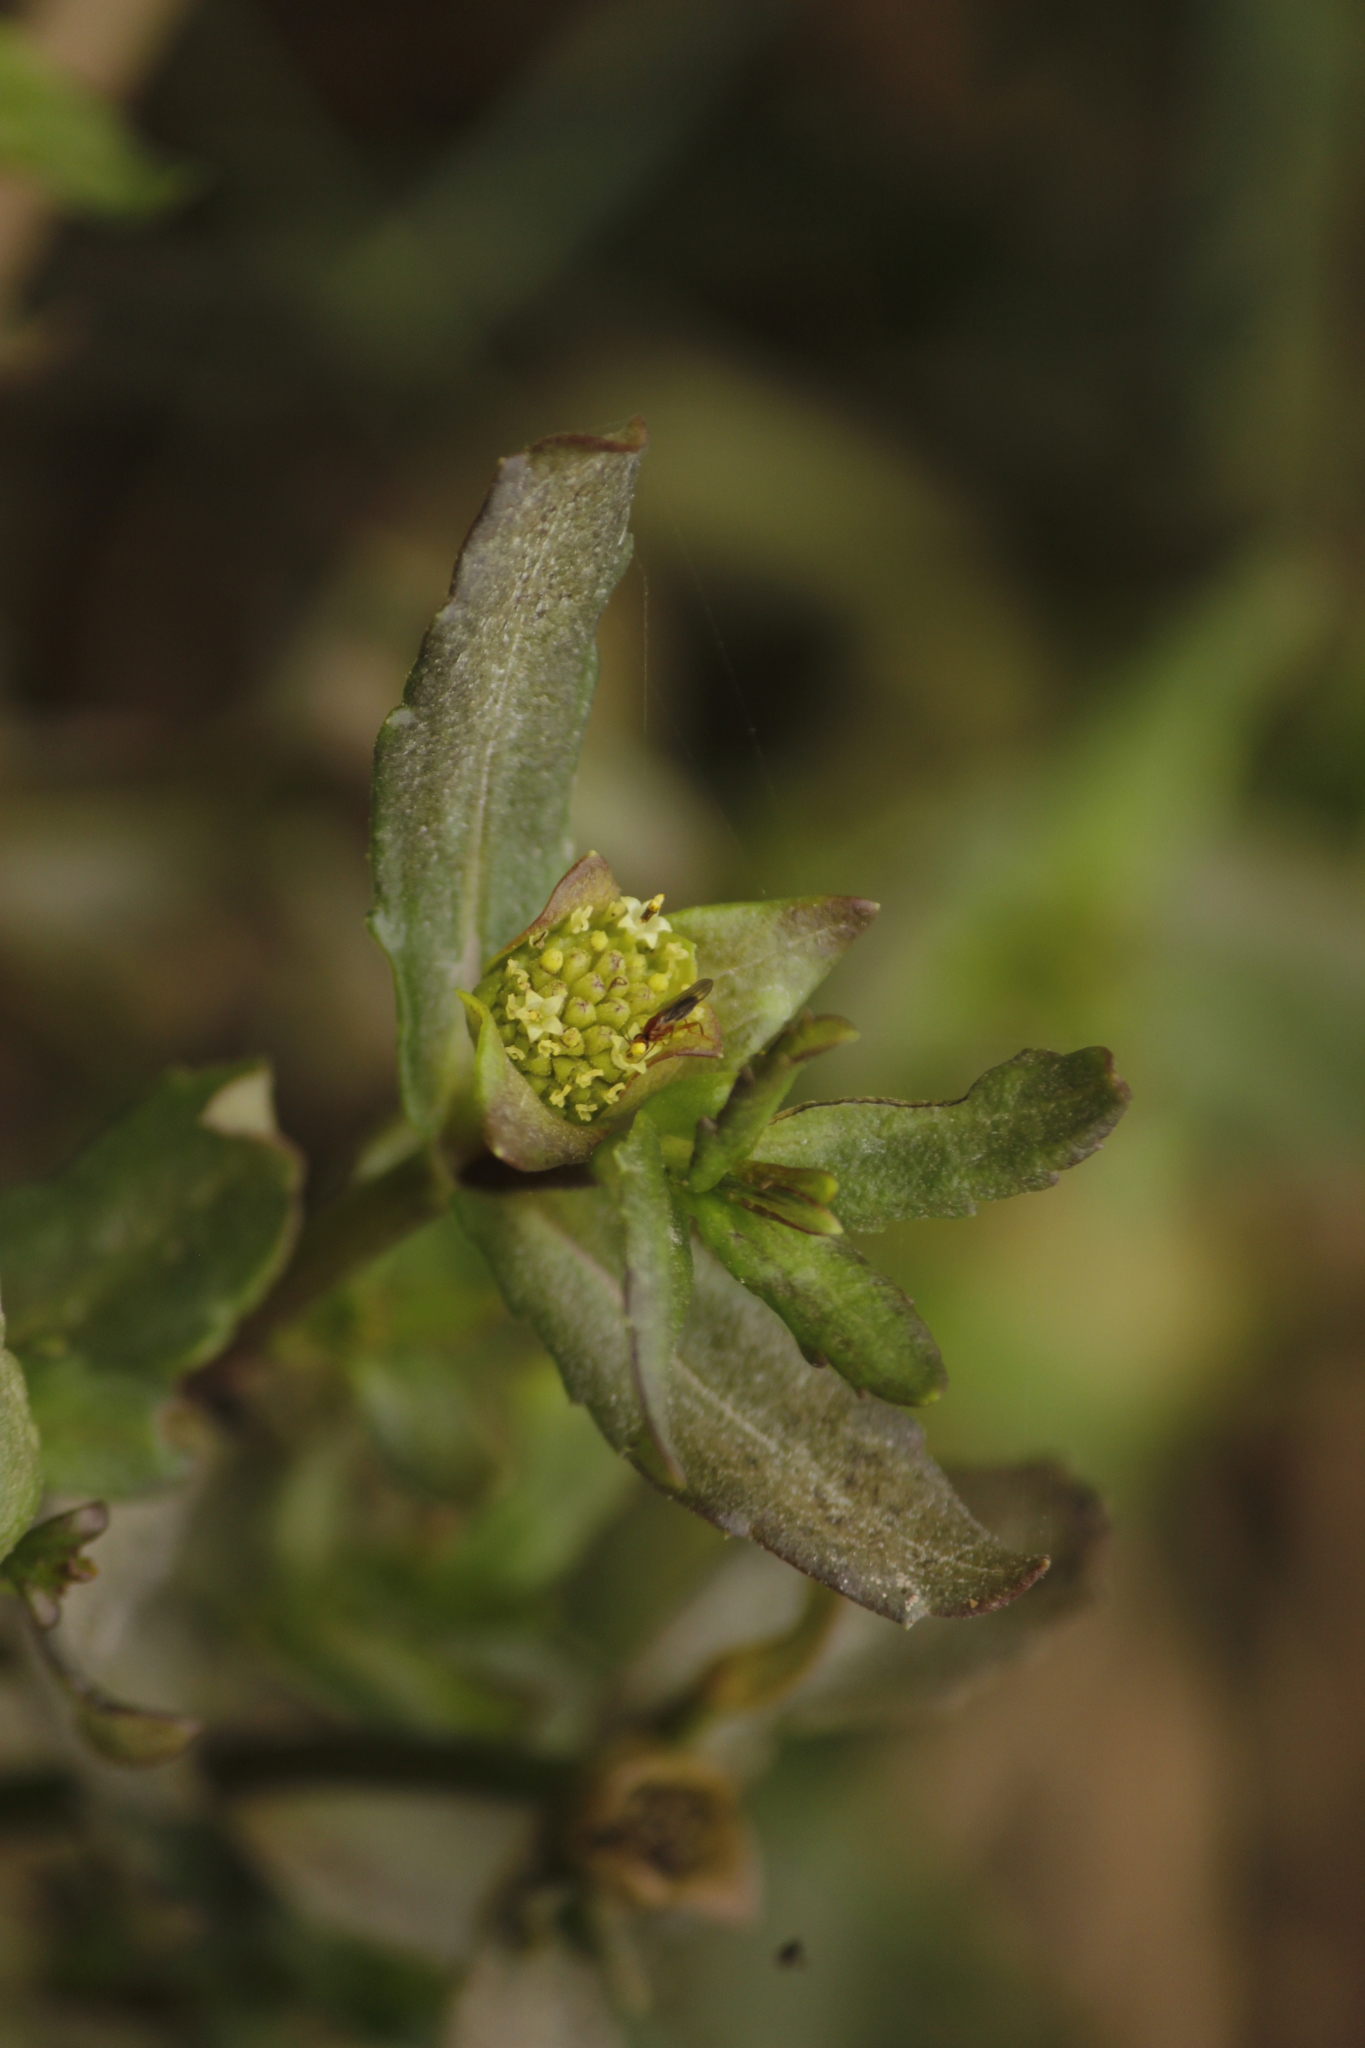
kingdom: Plantae
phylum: Tracheophyta
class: Magnoliopsida
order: Asterales
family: Asteraceae
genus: Enydra
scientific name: Enydra sessilifolia
